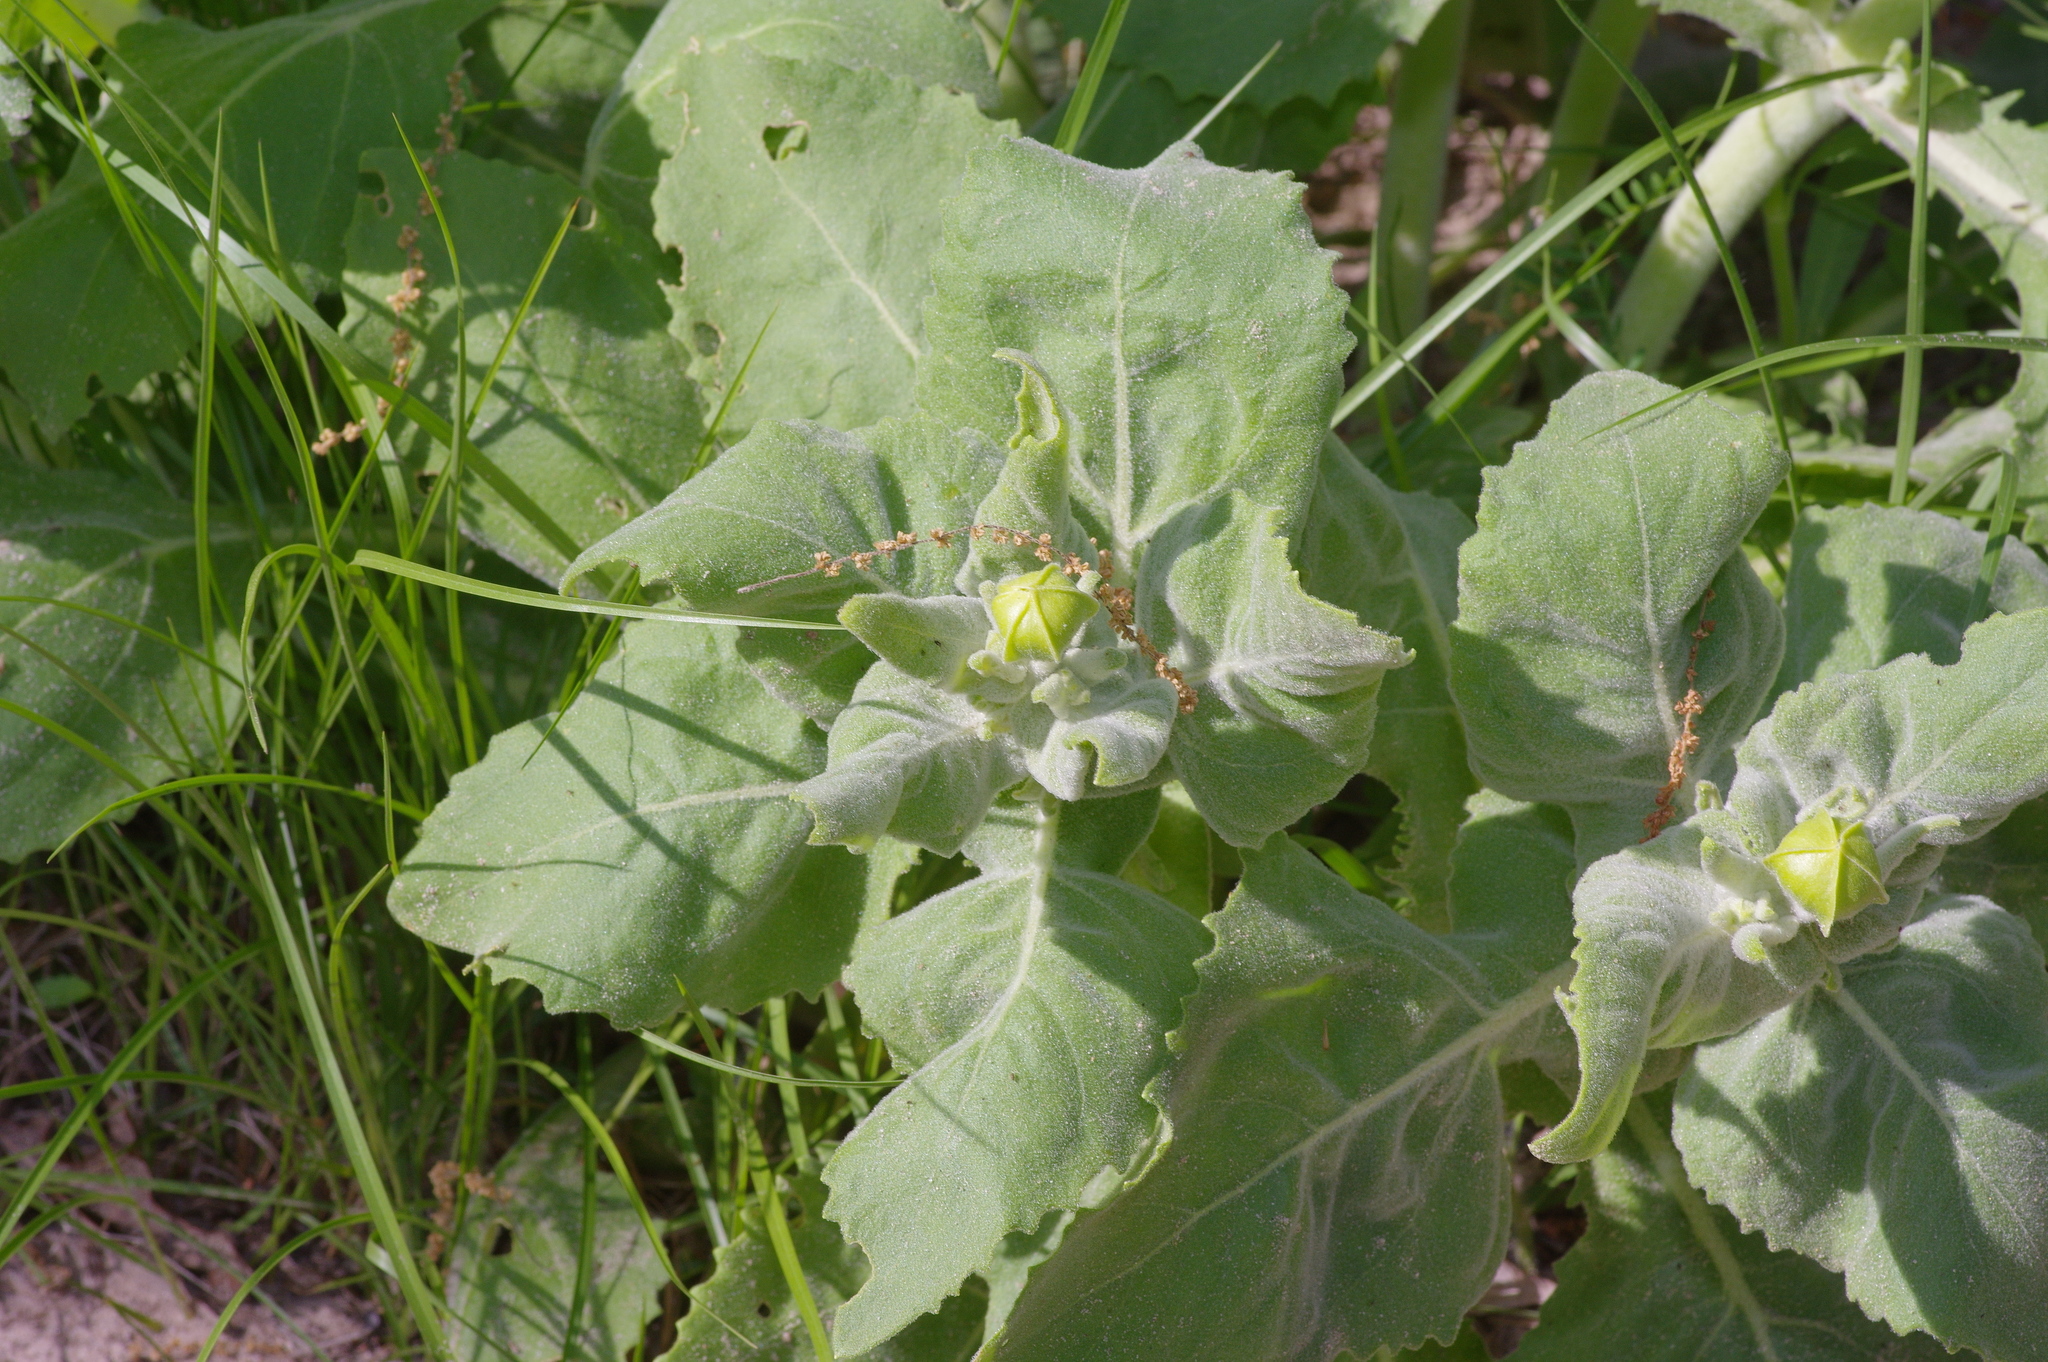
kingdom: Plantae
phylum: Tracheophyta
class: Magnoliopsida
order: Asterales
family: Asteraceae
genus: Tetragonotheca
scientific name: Tetragonotheca ludoviciana
